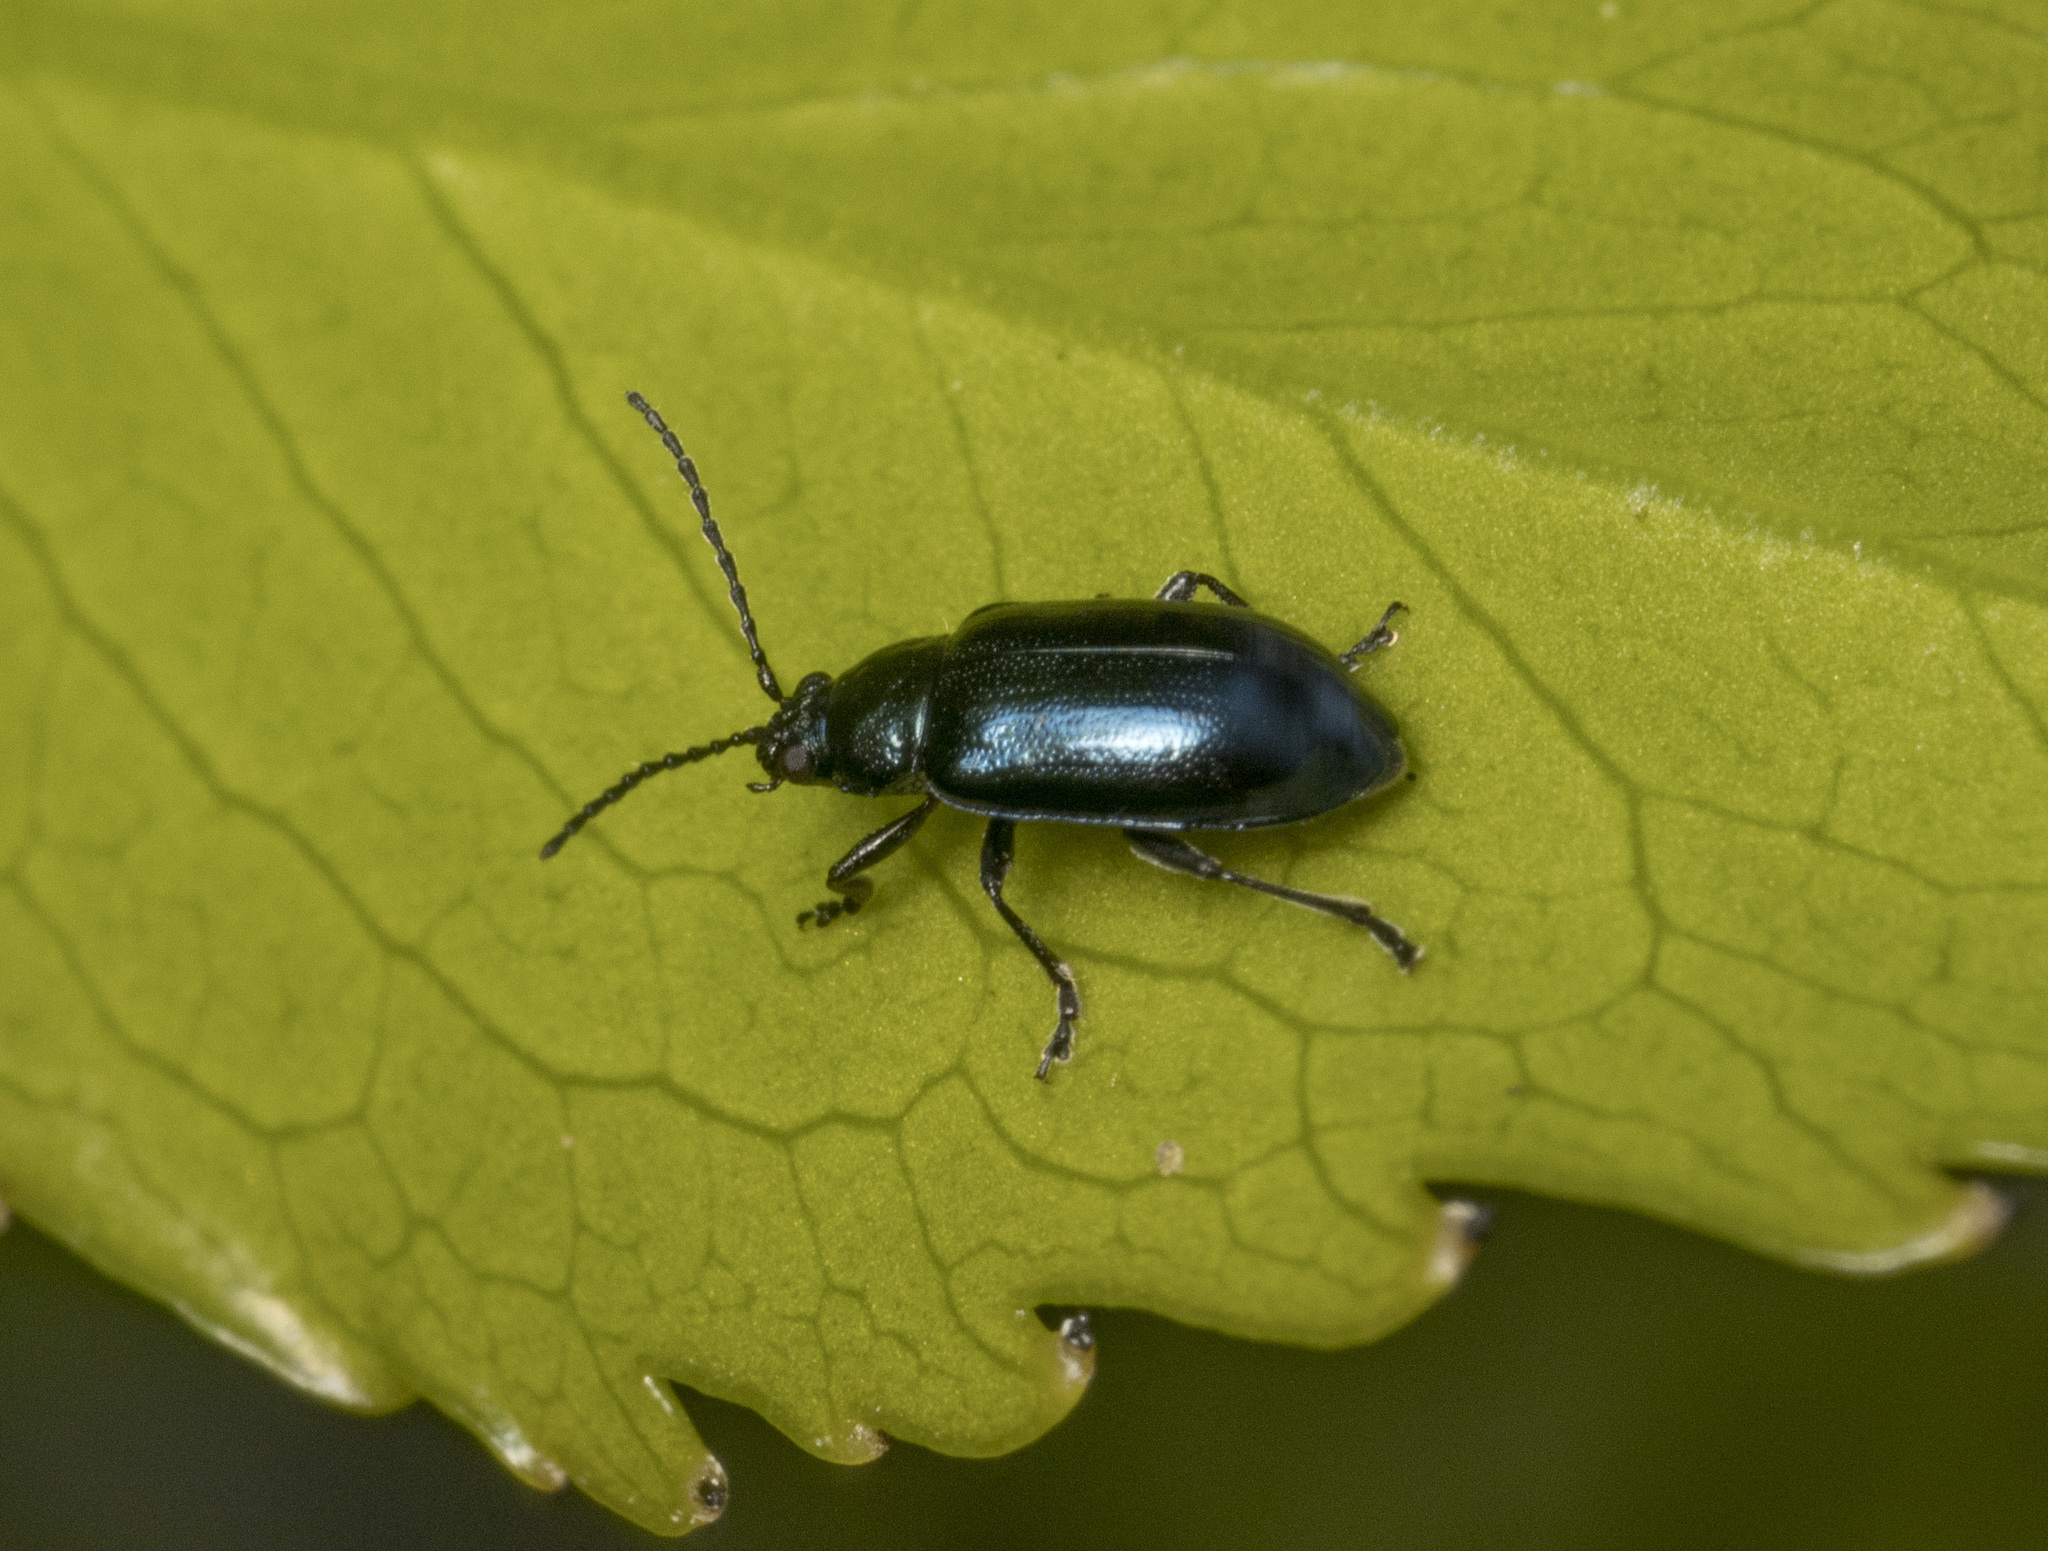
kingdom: Animalia
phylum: Arthropoda
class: Insecta
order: Coleoptera
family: Chrysomelidae
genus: Lysathia
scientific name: Lysathia
